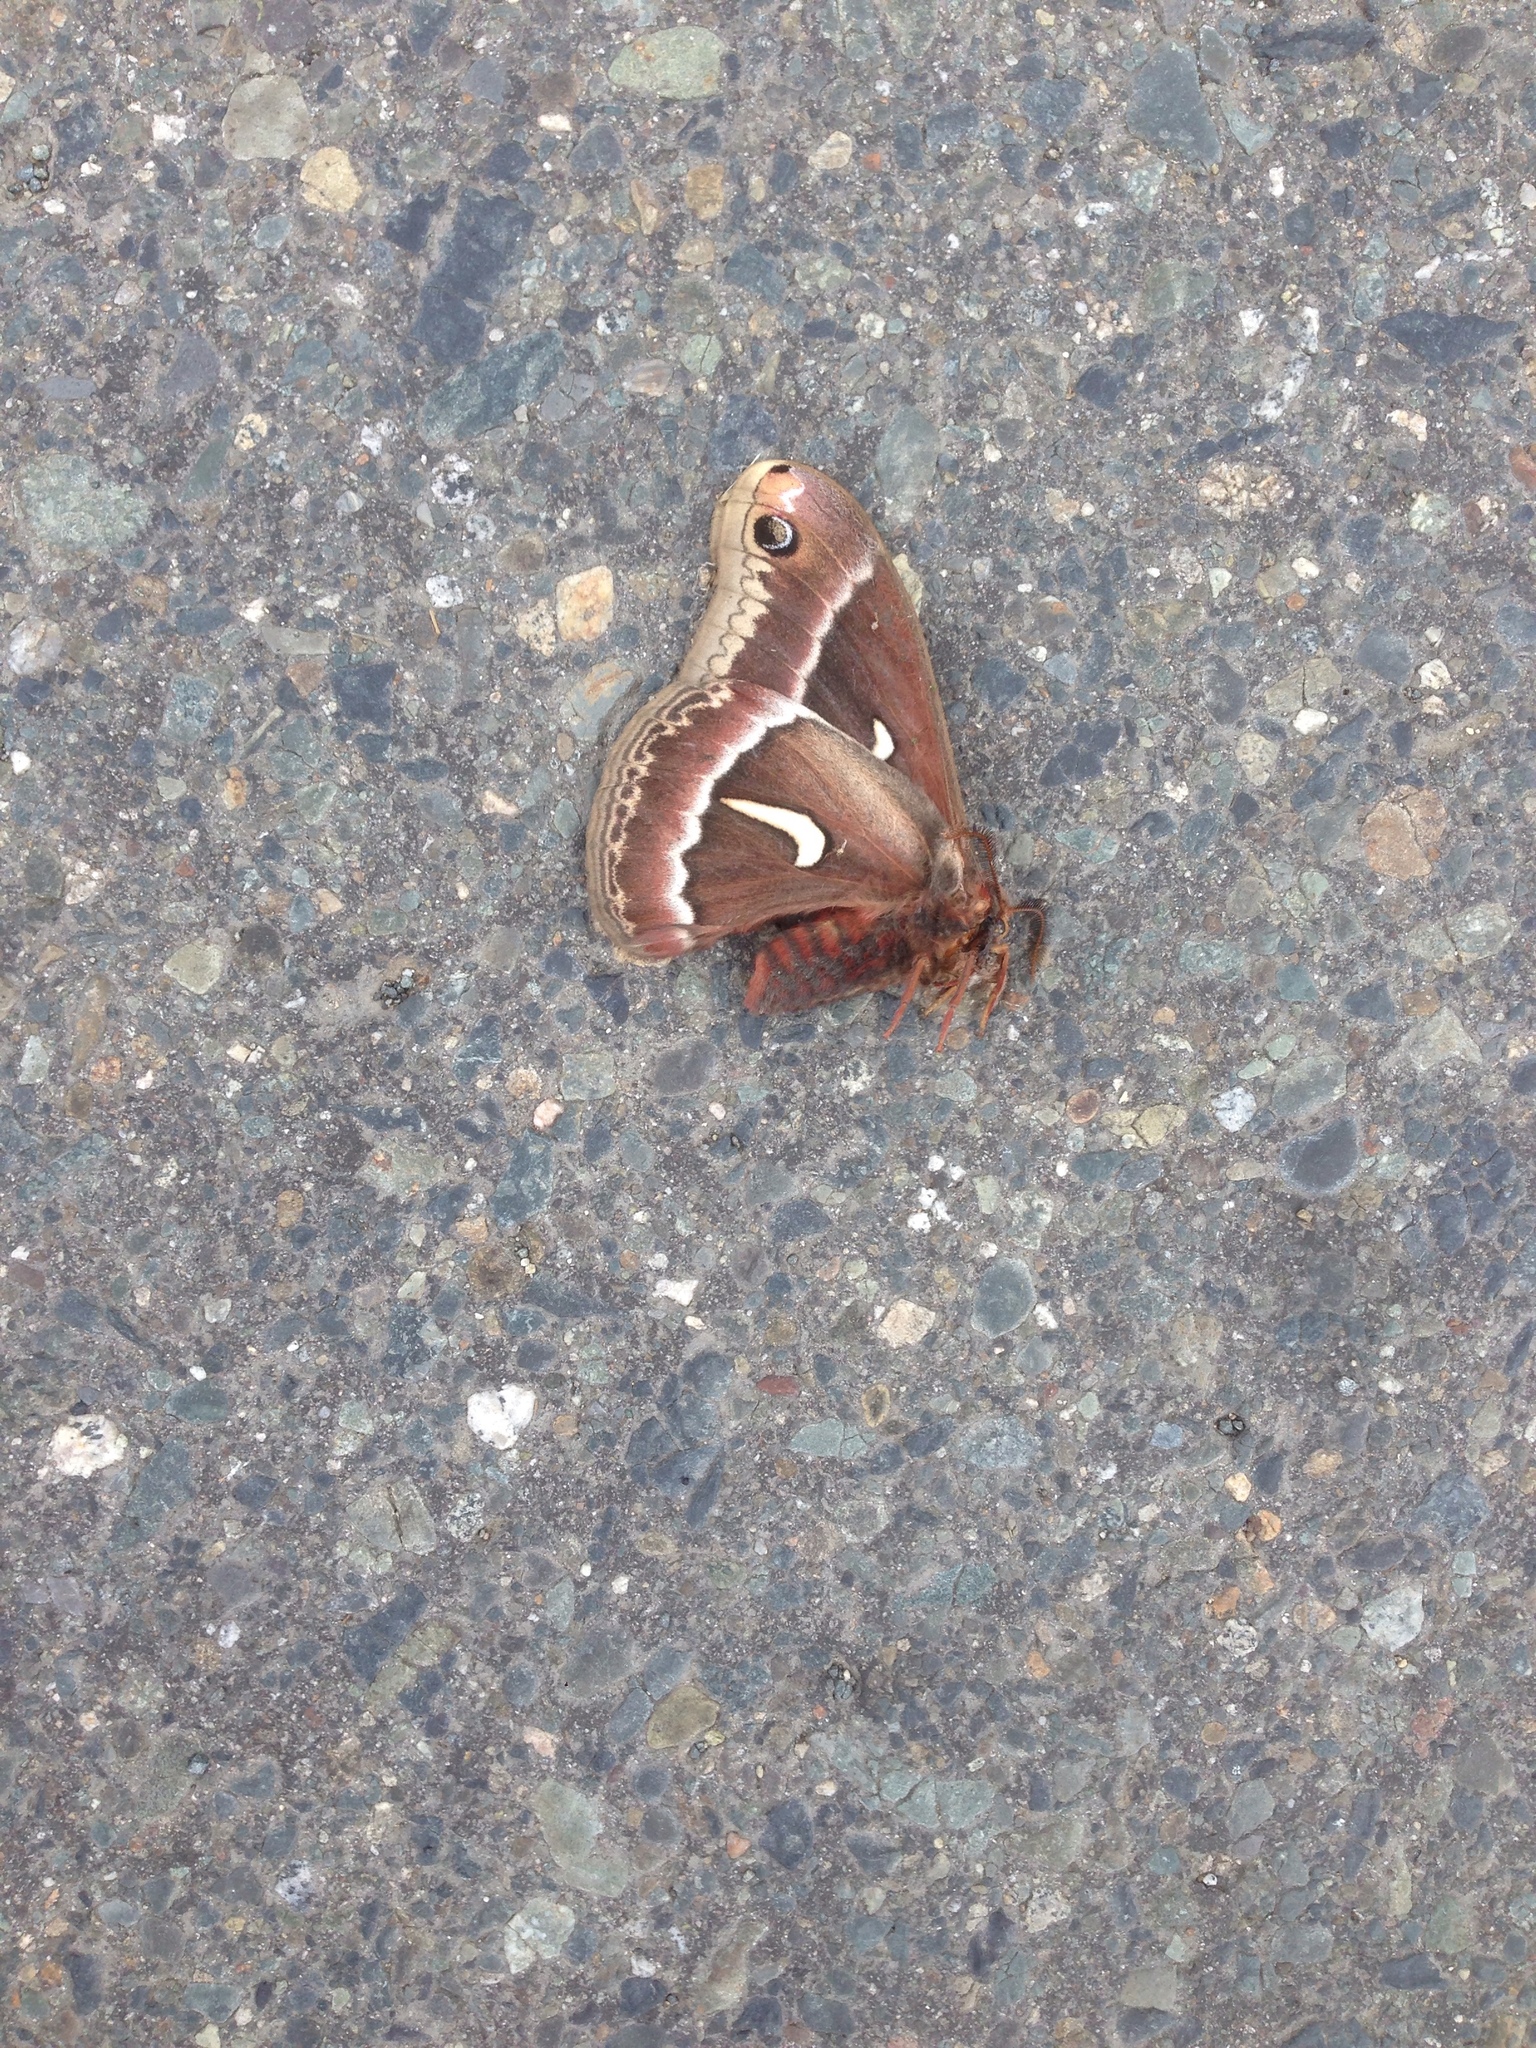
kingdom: Animalia
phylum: Arthropoda
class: Insecta
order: Lepidoptera
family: Saturniidae
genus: Hyalophora
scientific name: Hyalophora euryalus
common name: Ceanothus silkmoth
